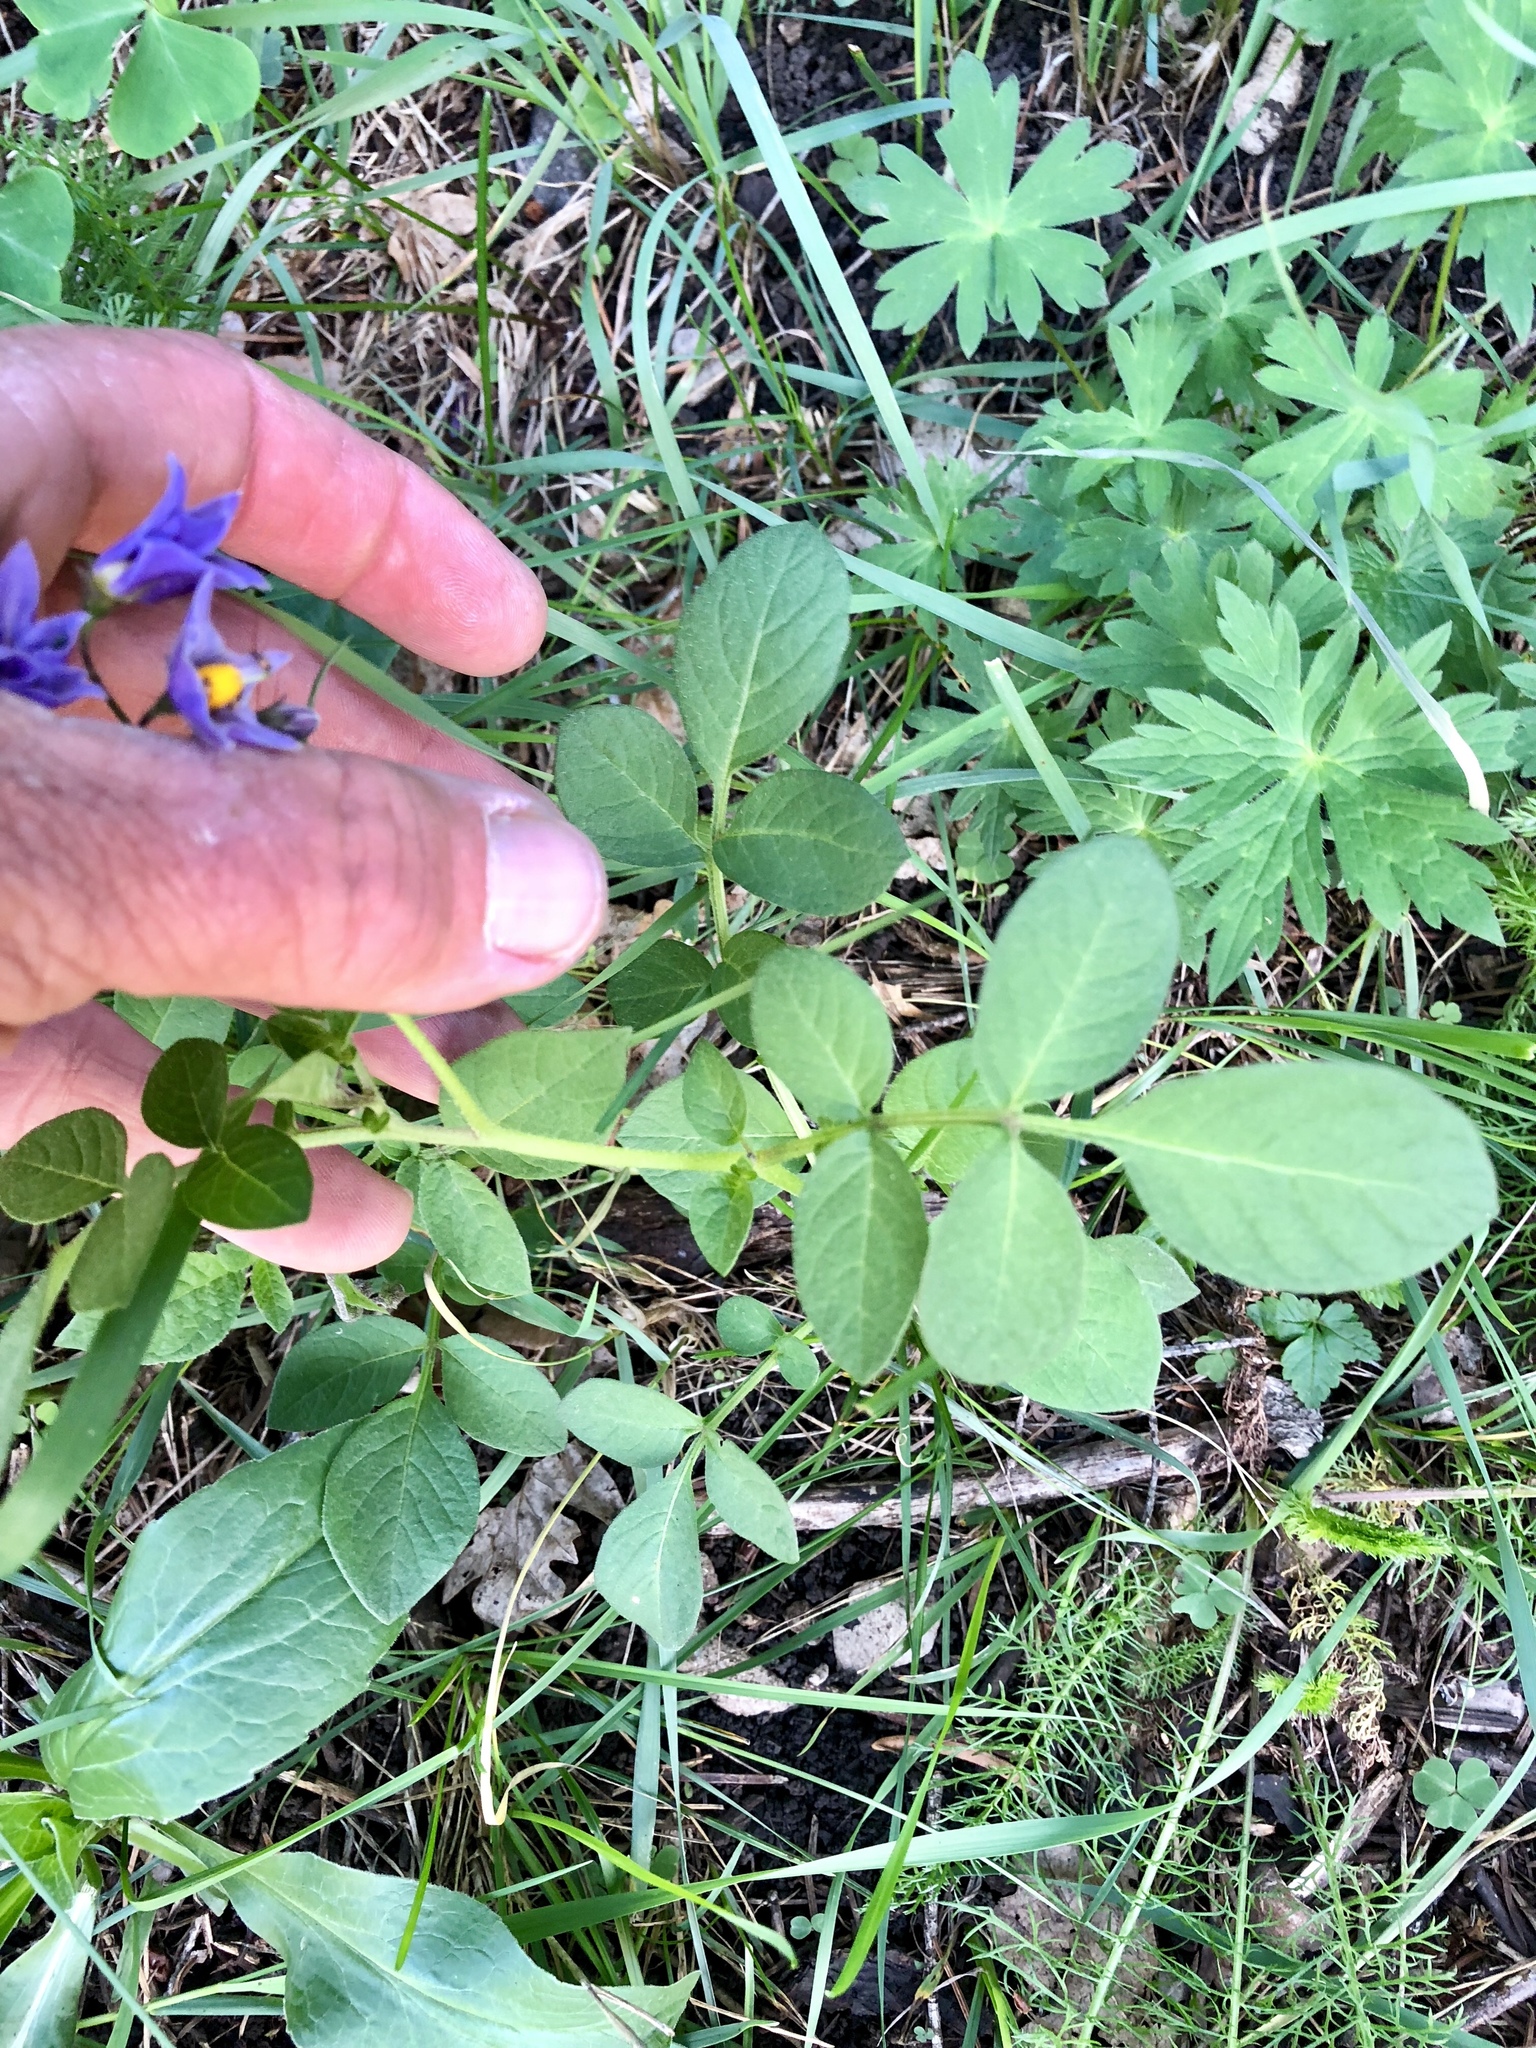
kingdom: Plantae
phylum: Tracheophyta
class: Magnoliopsida
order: Solanales
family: Solanaceae
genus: Solanum
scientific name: Solanum stoloniferum
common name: Fendler's nighshade
